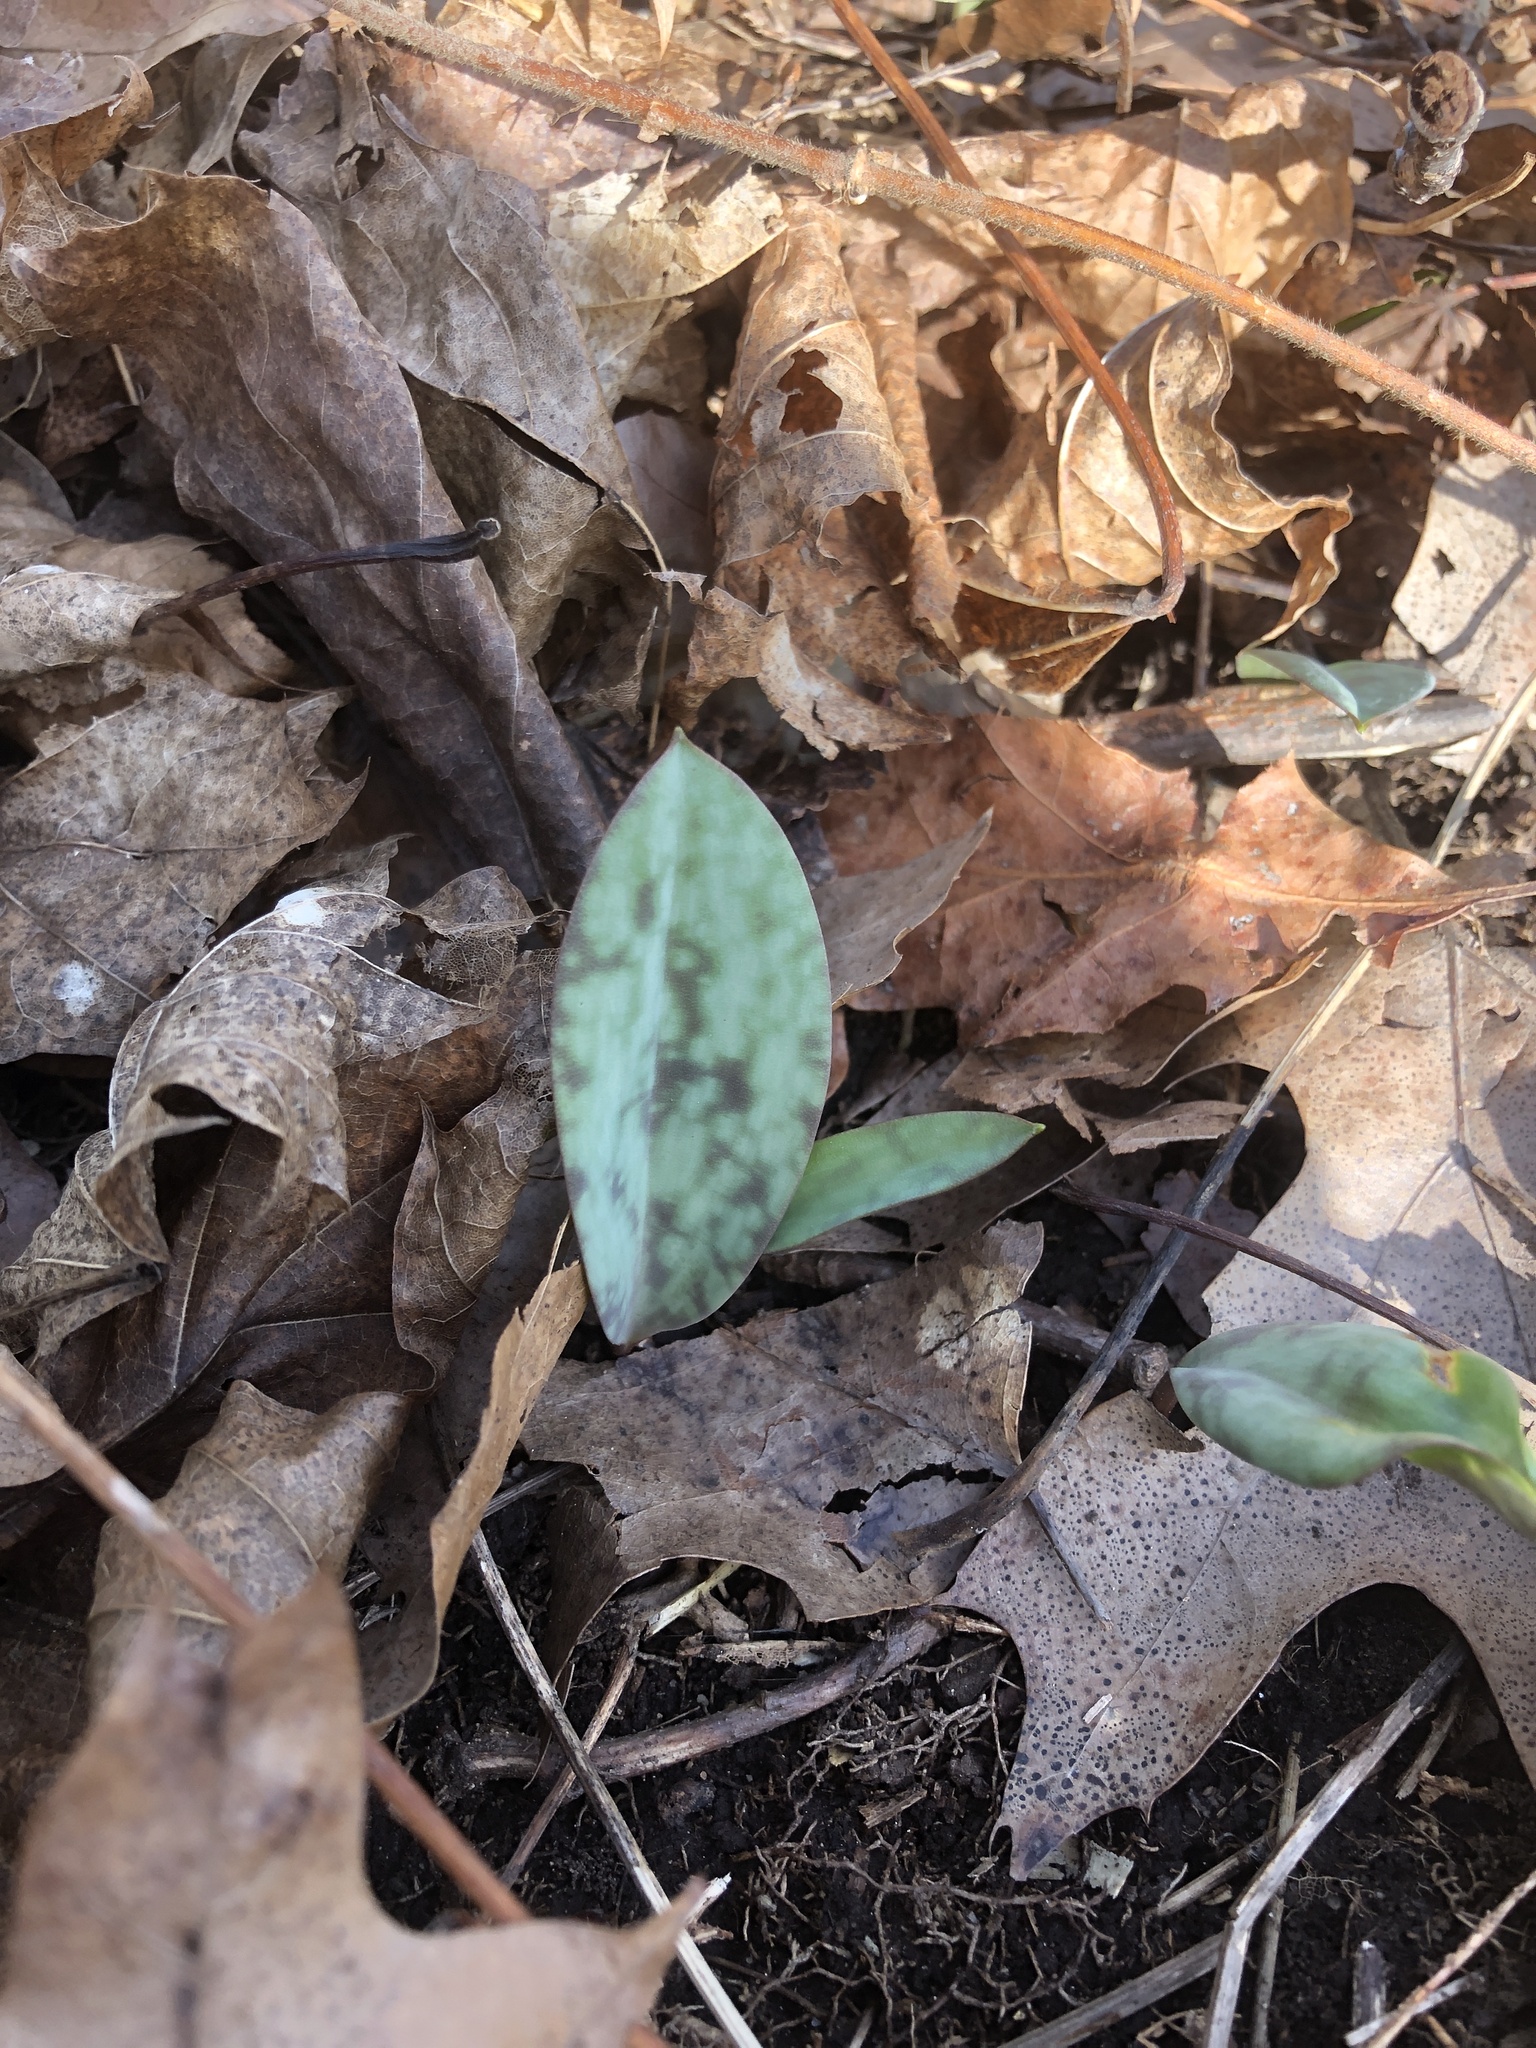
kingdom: Plantae
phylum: Tracheophyta
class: Liliopsida
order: Liliales
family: Liliaceae
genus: Erythronium
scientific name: Erythronium americanum
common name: Yellow adder's-tongue
